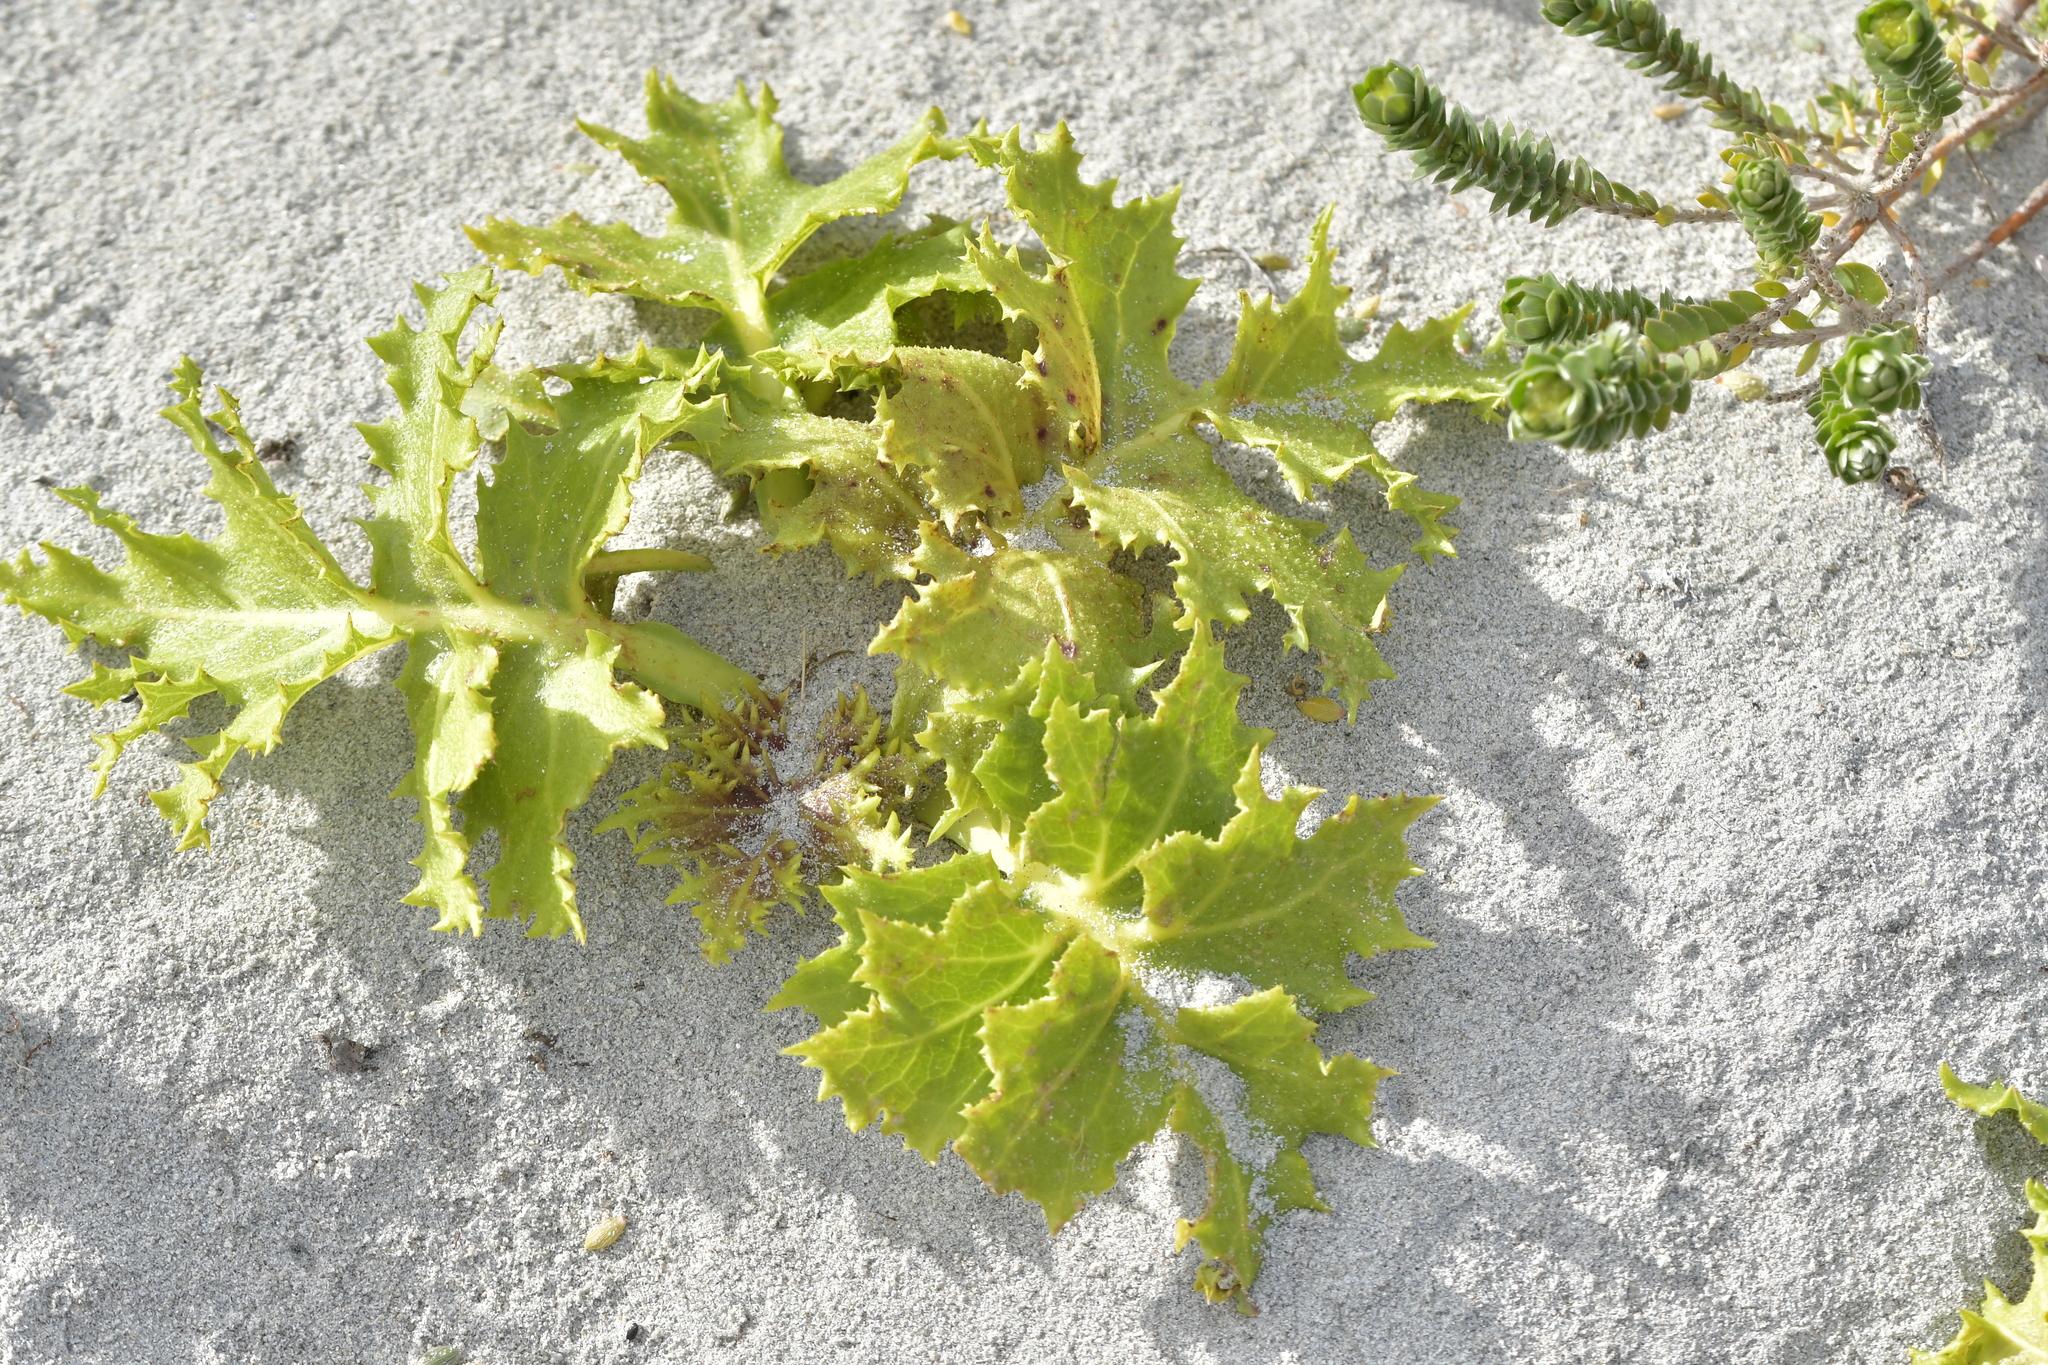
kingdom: Plantae
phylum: Tracheophyta
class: Magnoliopsida
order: Asterales
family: Asteraceae
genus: Sonchus
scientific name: Sonchus grandifolius
